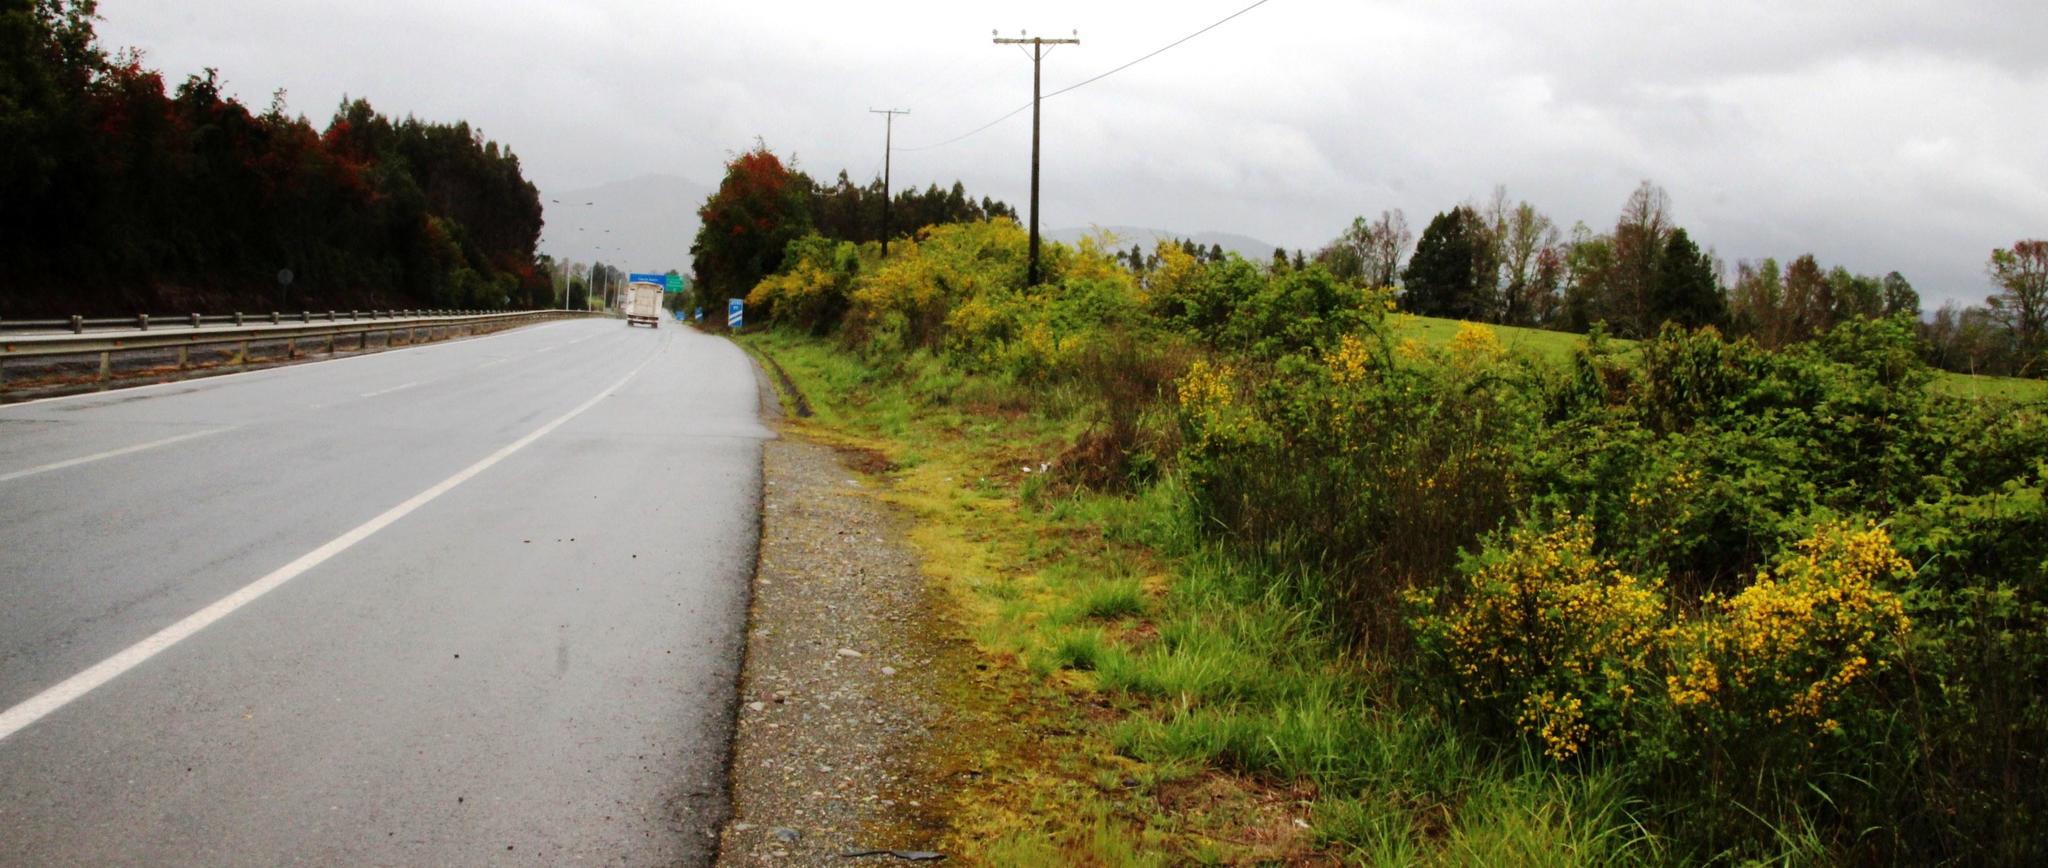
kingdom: Plantae
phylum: Tracheophyta
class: Magnoliopsida
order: Fabales
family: Fabaceae
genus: Genista
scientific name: Genista monspessulana
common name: Montpellier broom
